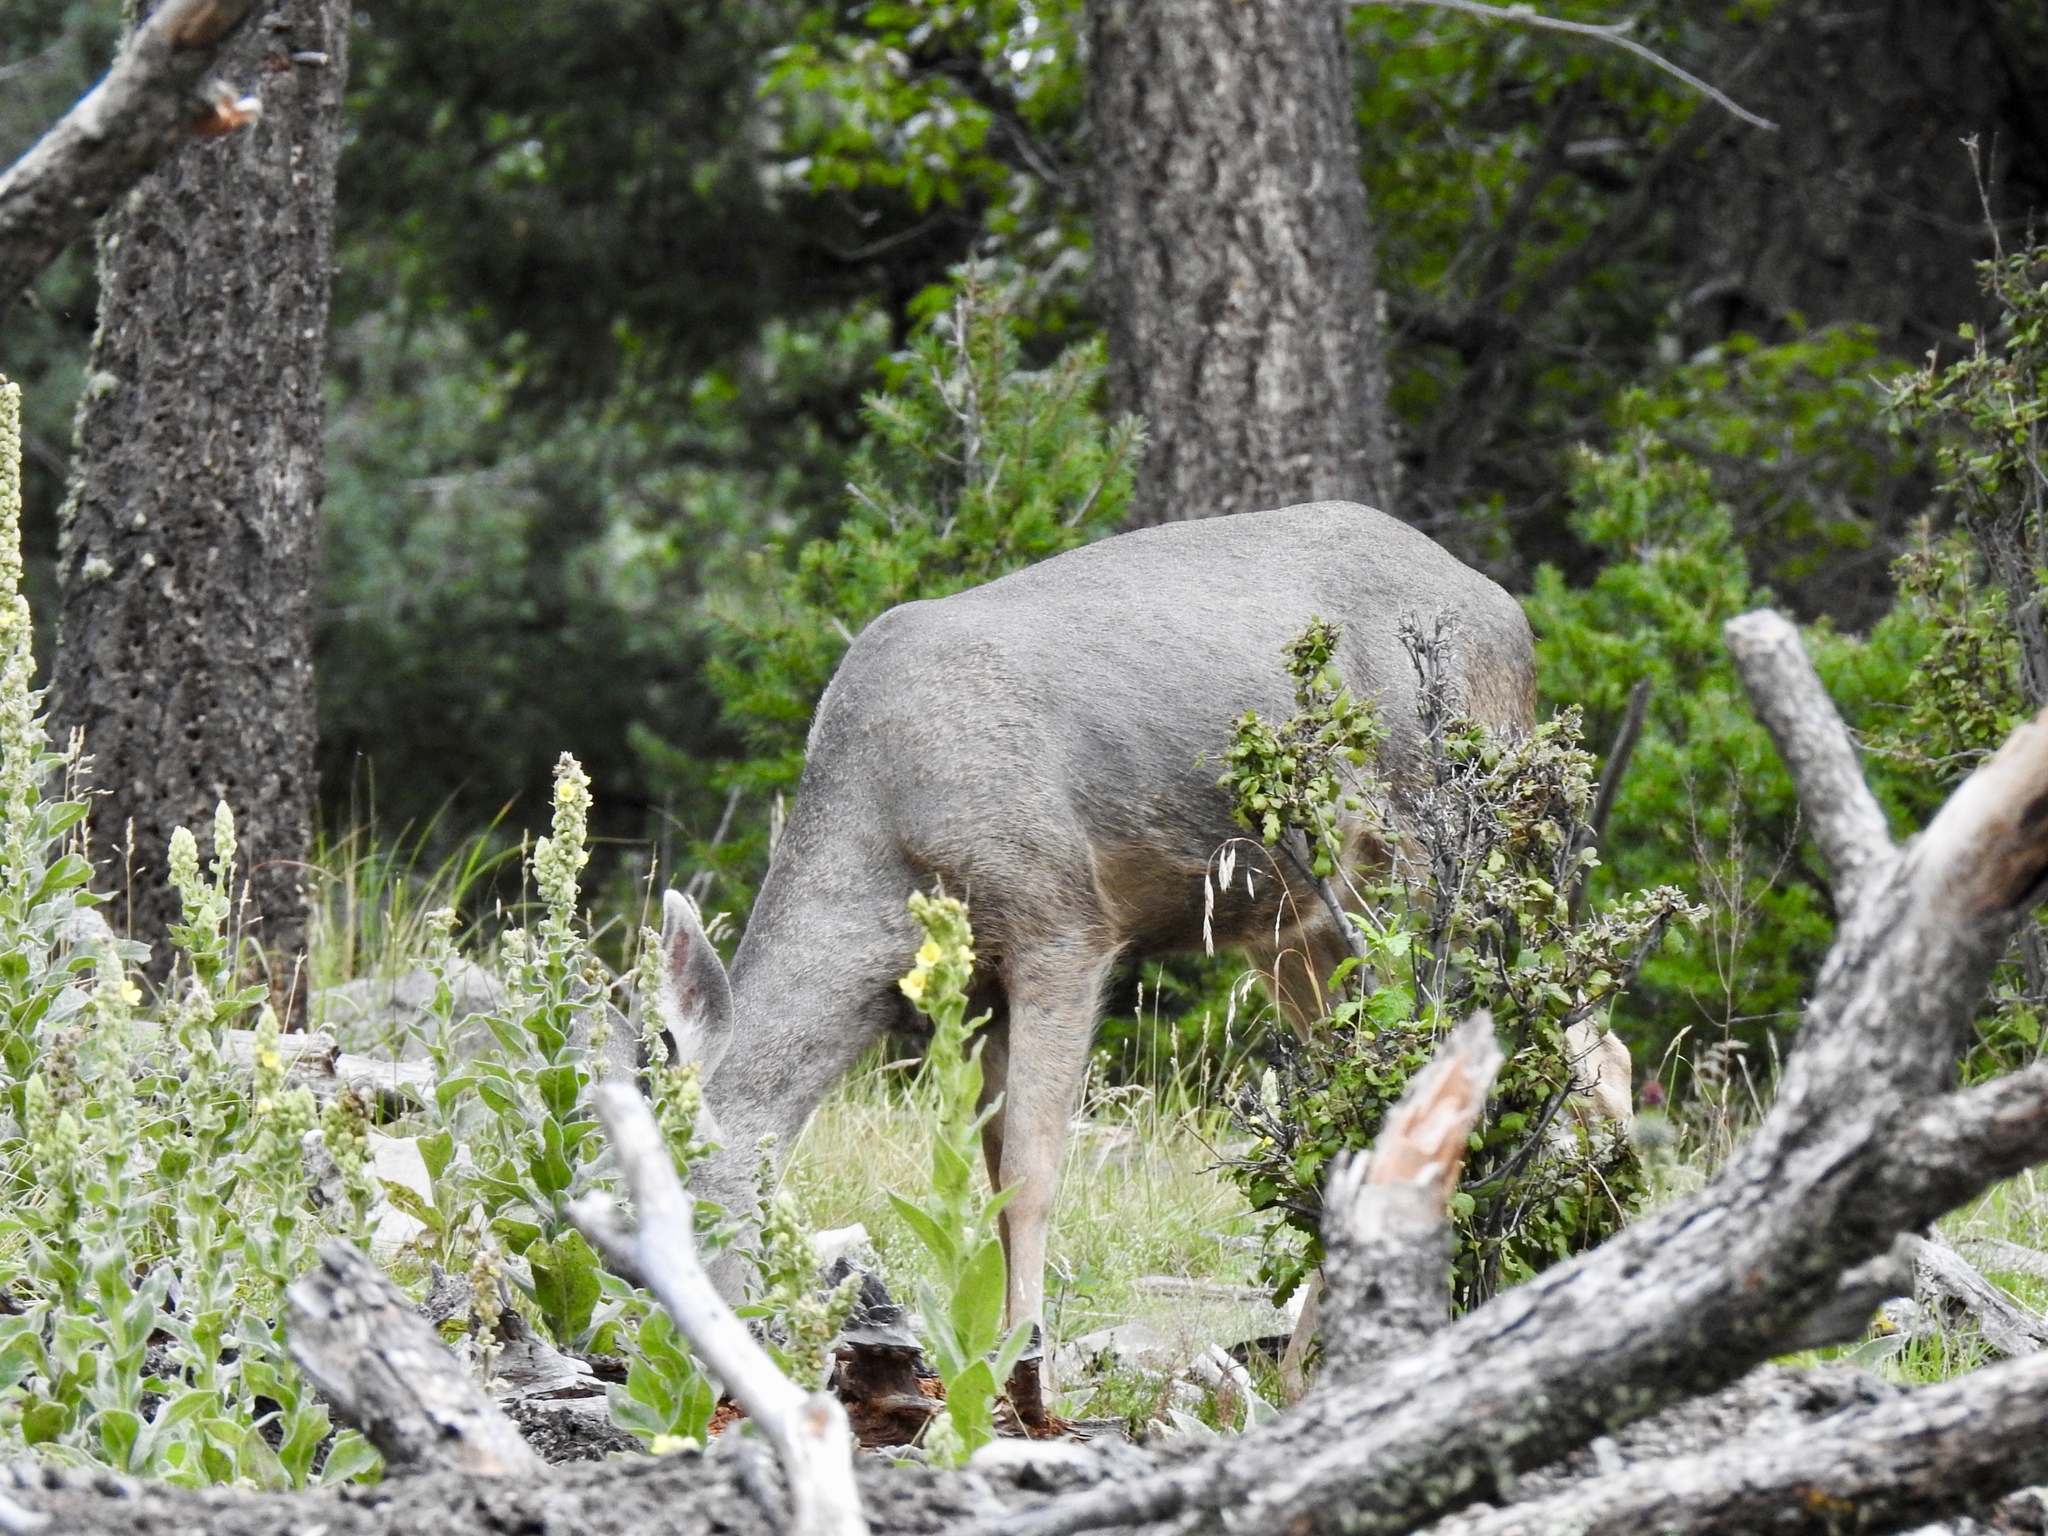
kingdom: Animalia
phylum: Chordata
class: Mammalia
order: Artiodactyla
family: Cervidae
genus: Odocoileus
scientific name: Odocoileus hemionus
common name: Mule deer
